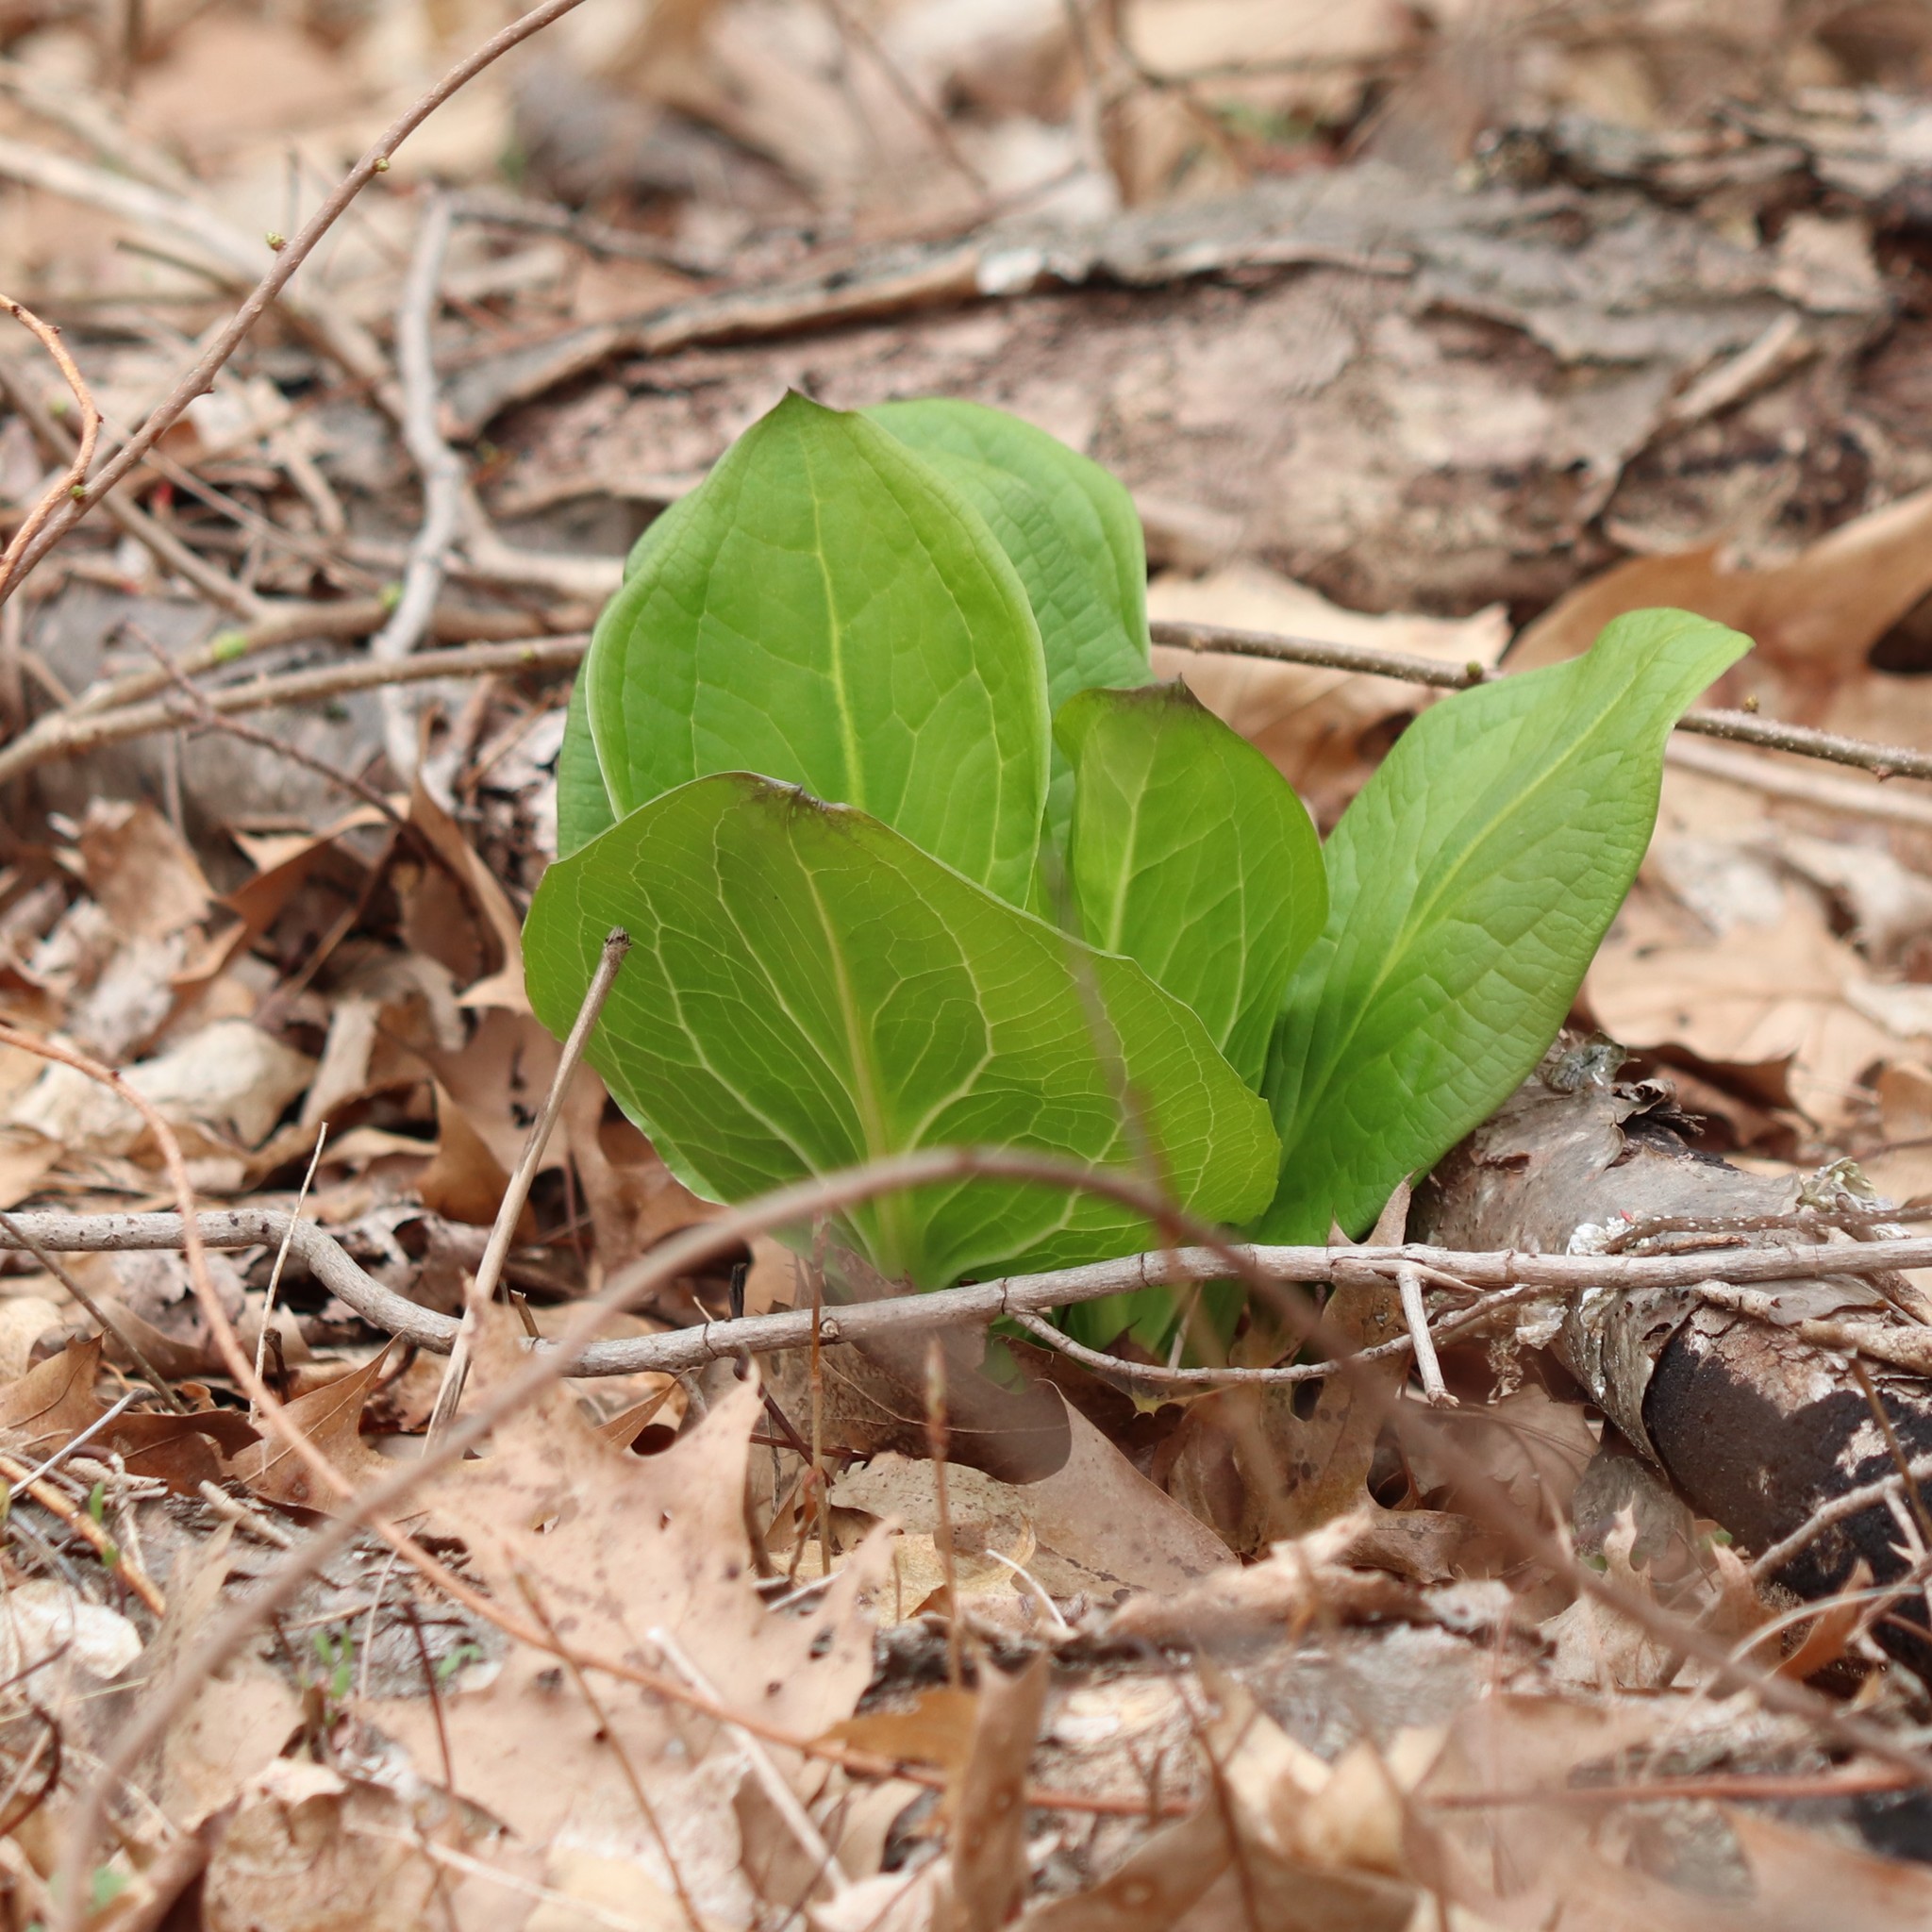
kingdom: Plantae
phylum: Tracheophyta
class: Liliopsida
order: Alismatales
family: Araceae
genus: Symplocarpus
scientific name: Symplocarpus foetidus
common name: Eastern skunk cabbage
